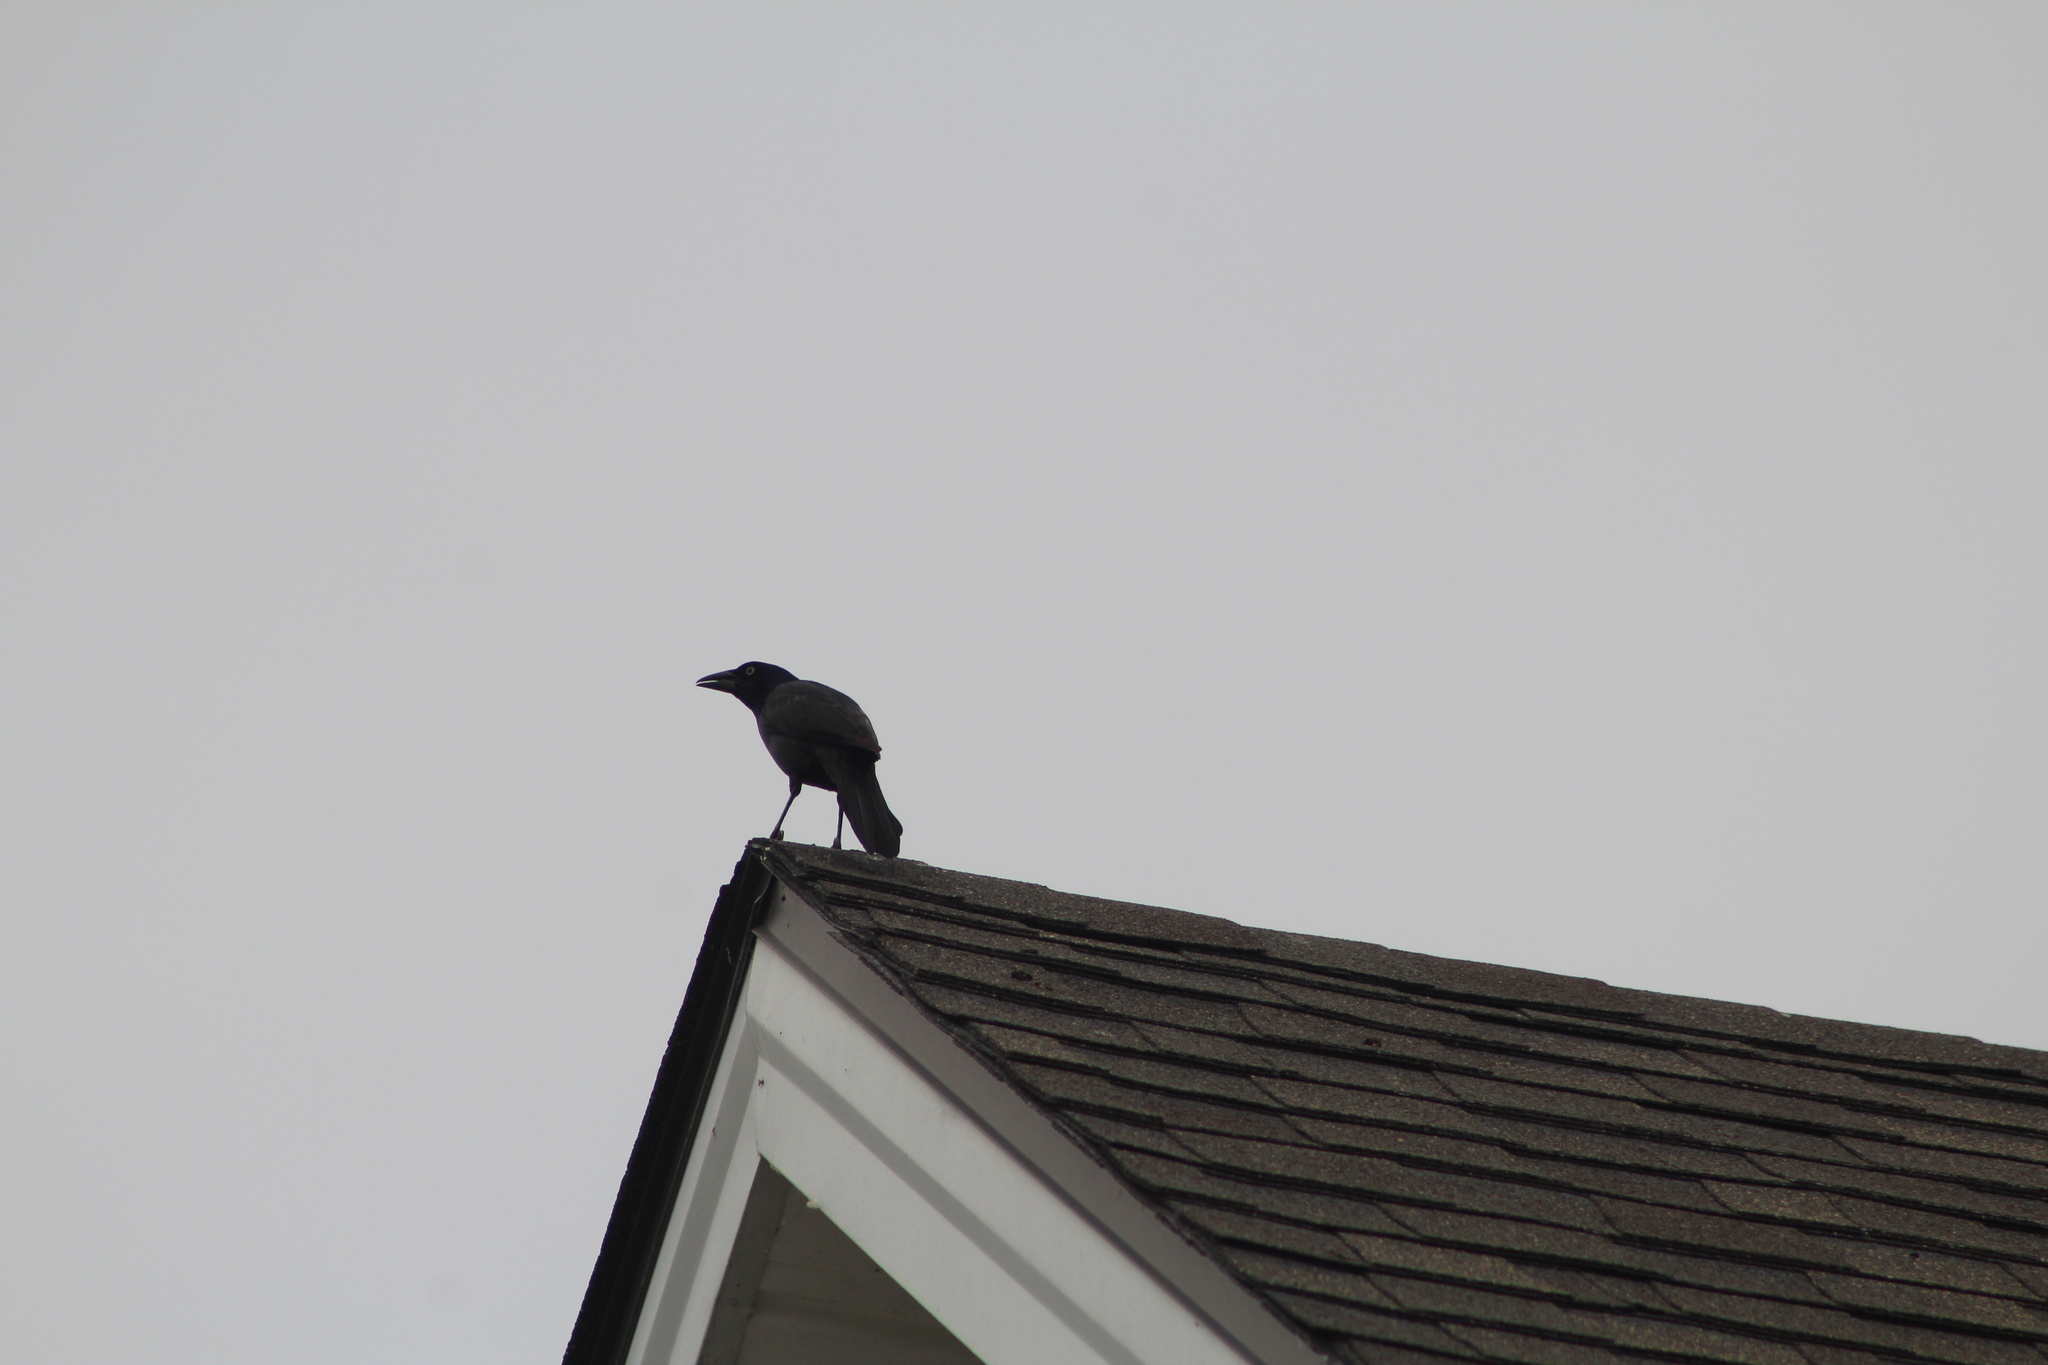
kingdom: Animalia
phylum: Chordata
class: Aves
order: Passeriformes
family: Icteridae
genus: Quiscalus
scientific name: Quiscalus quiscula
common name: Common grackle
